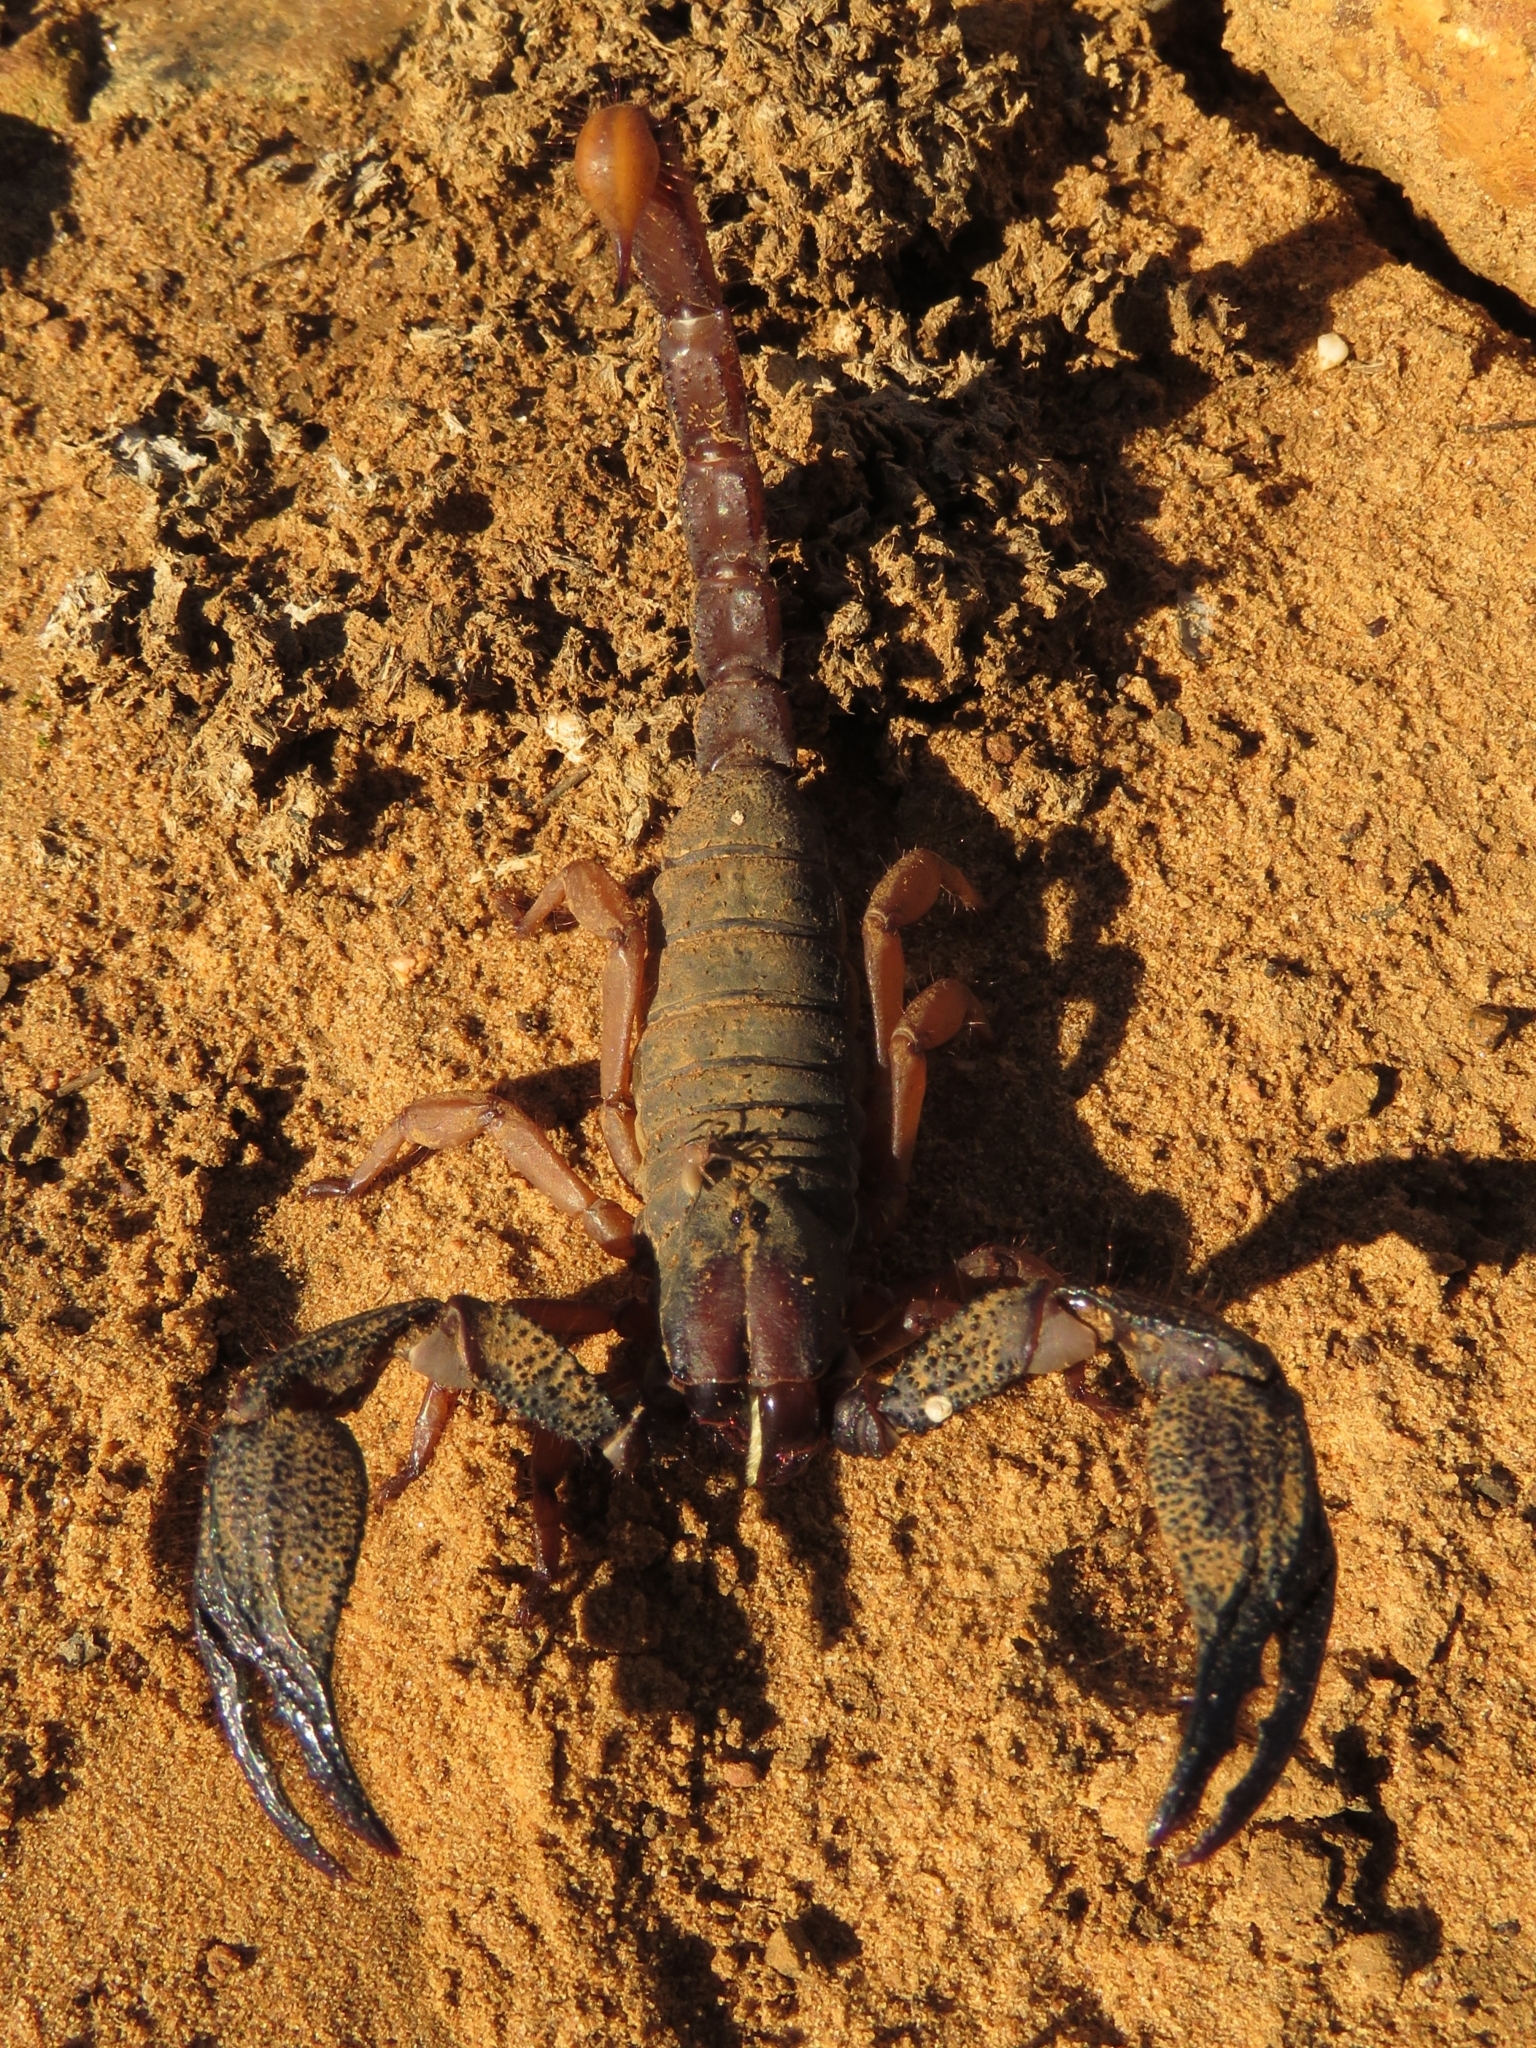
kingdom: Animalia
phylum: Arthropoda
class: Arachnida
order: Scorpiones
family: Scorpionidae
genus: Opistophthalmus
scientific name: Opistophthalmus latimanus
